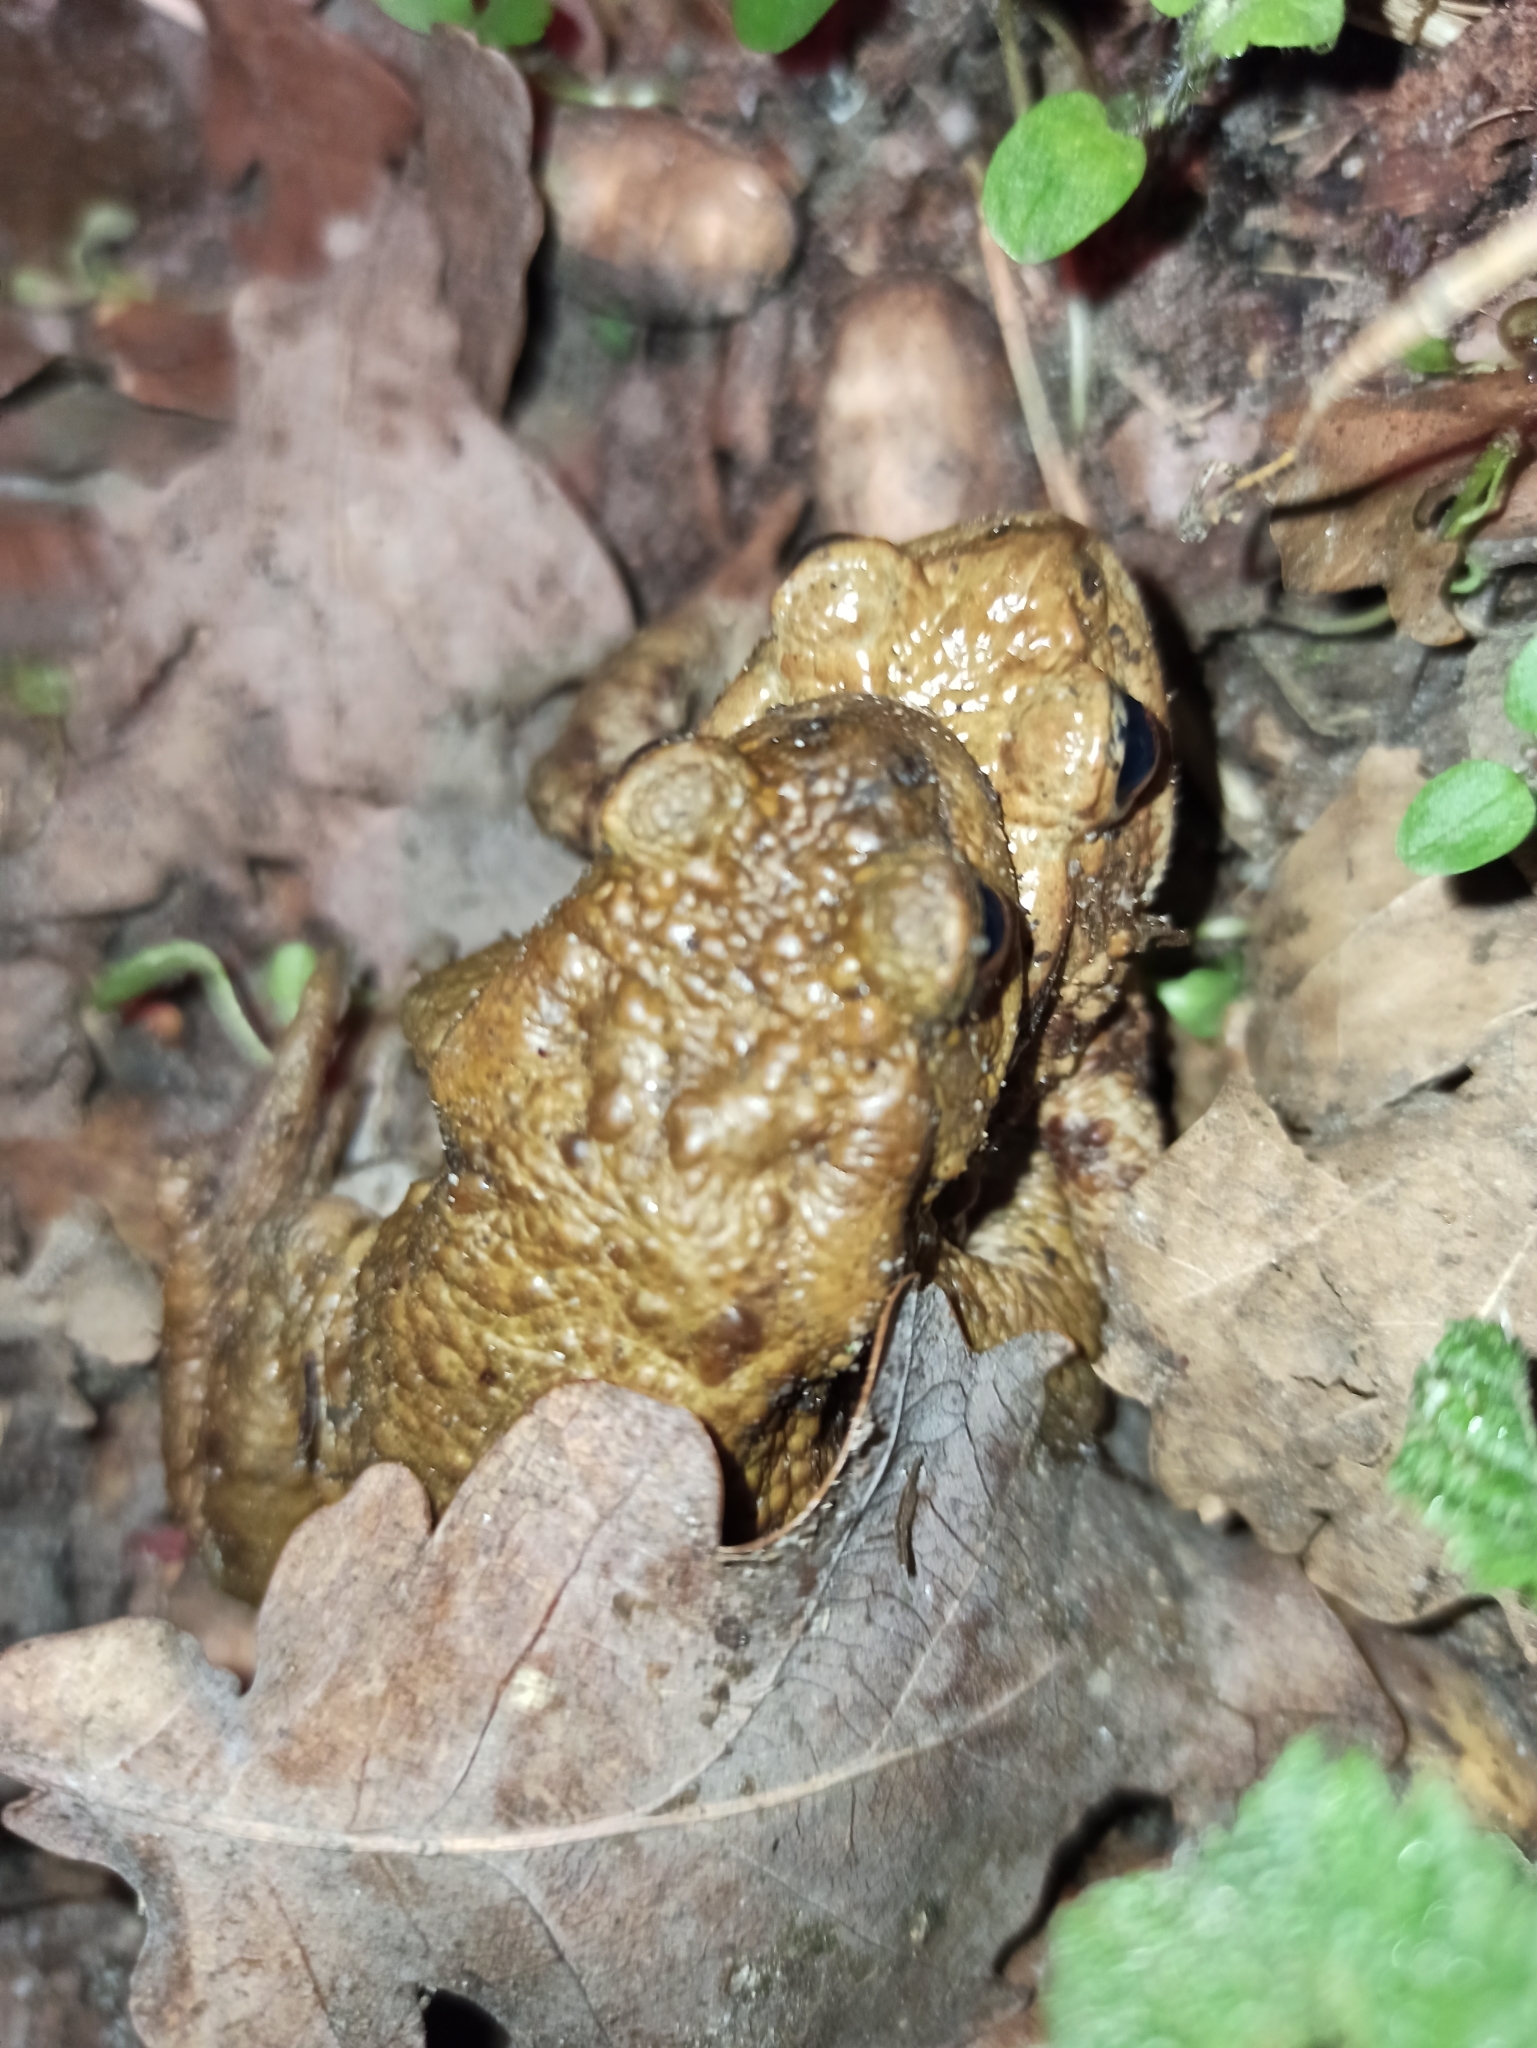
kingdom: Animalia
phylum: Chordata
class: Amphibia
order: Anura
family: Bufonidae
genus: Bufo
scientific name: Bufo bufo
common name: Common toad
